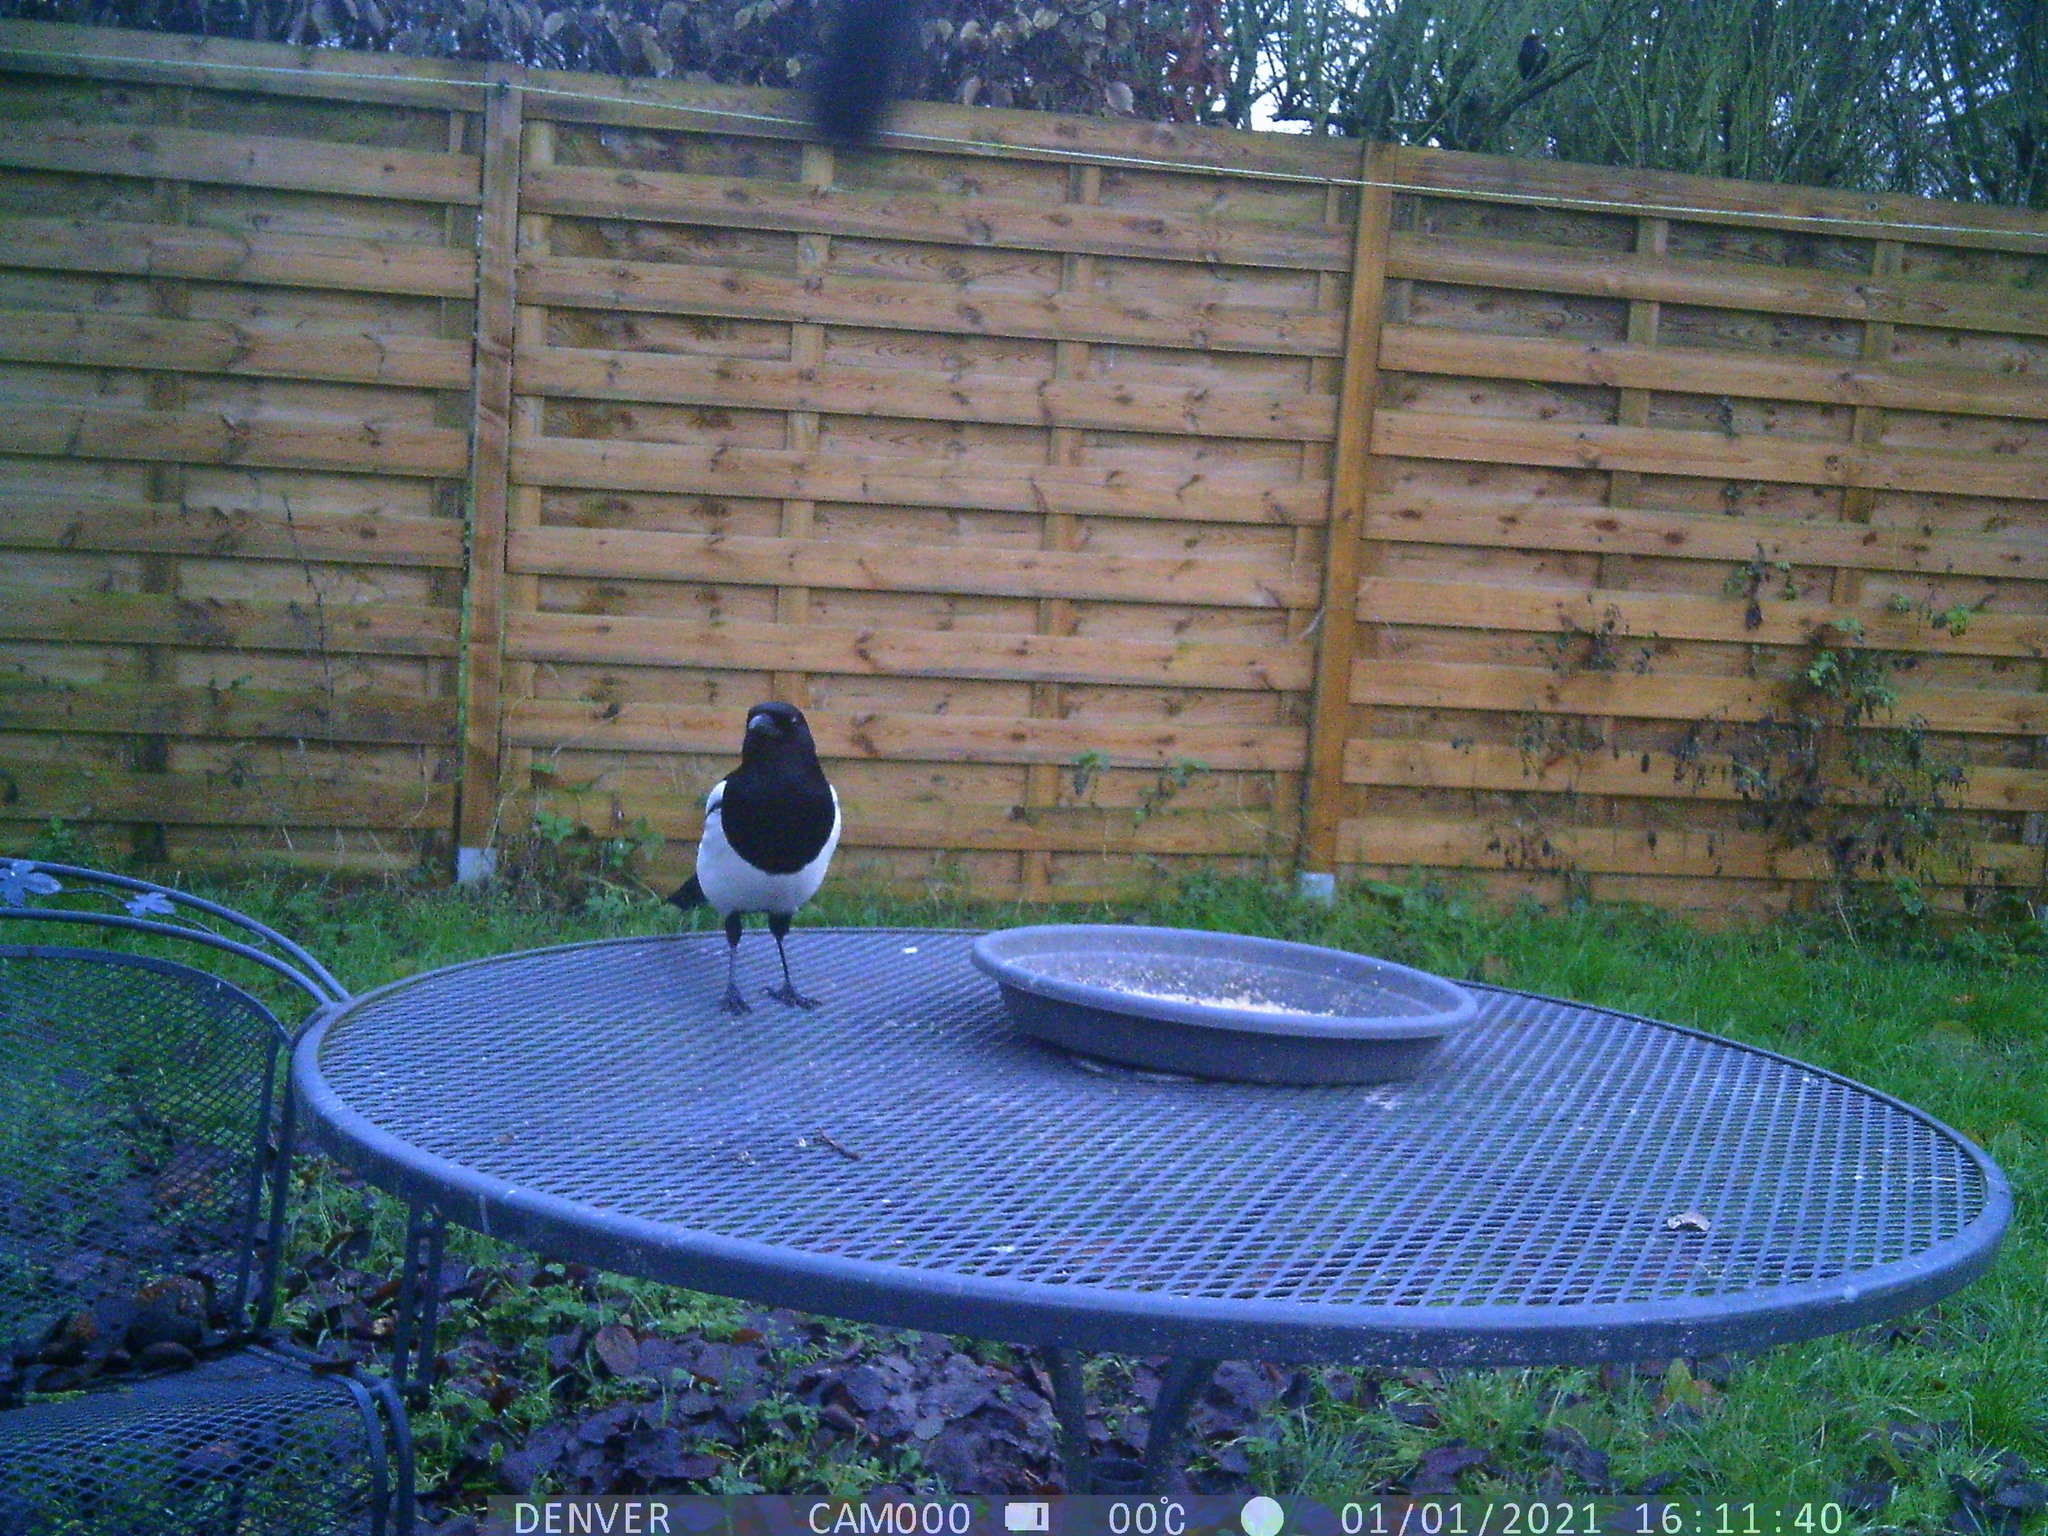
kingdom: Animalia
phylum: Chordata
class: Aves
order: Passeriformes
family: Corvidae
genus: Pica
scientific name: Pica pica
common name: Eurasian magpie
